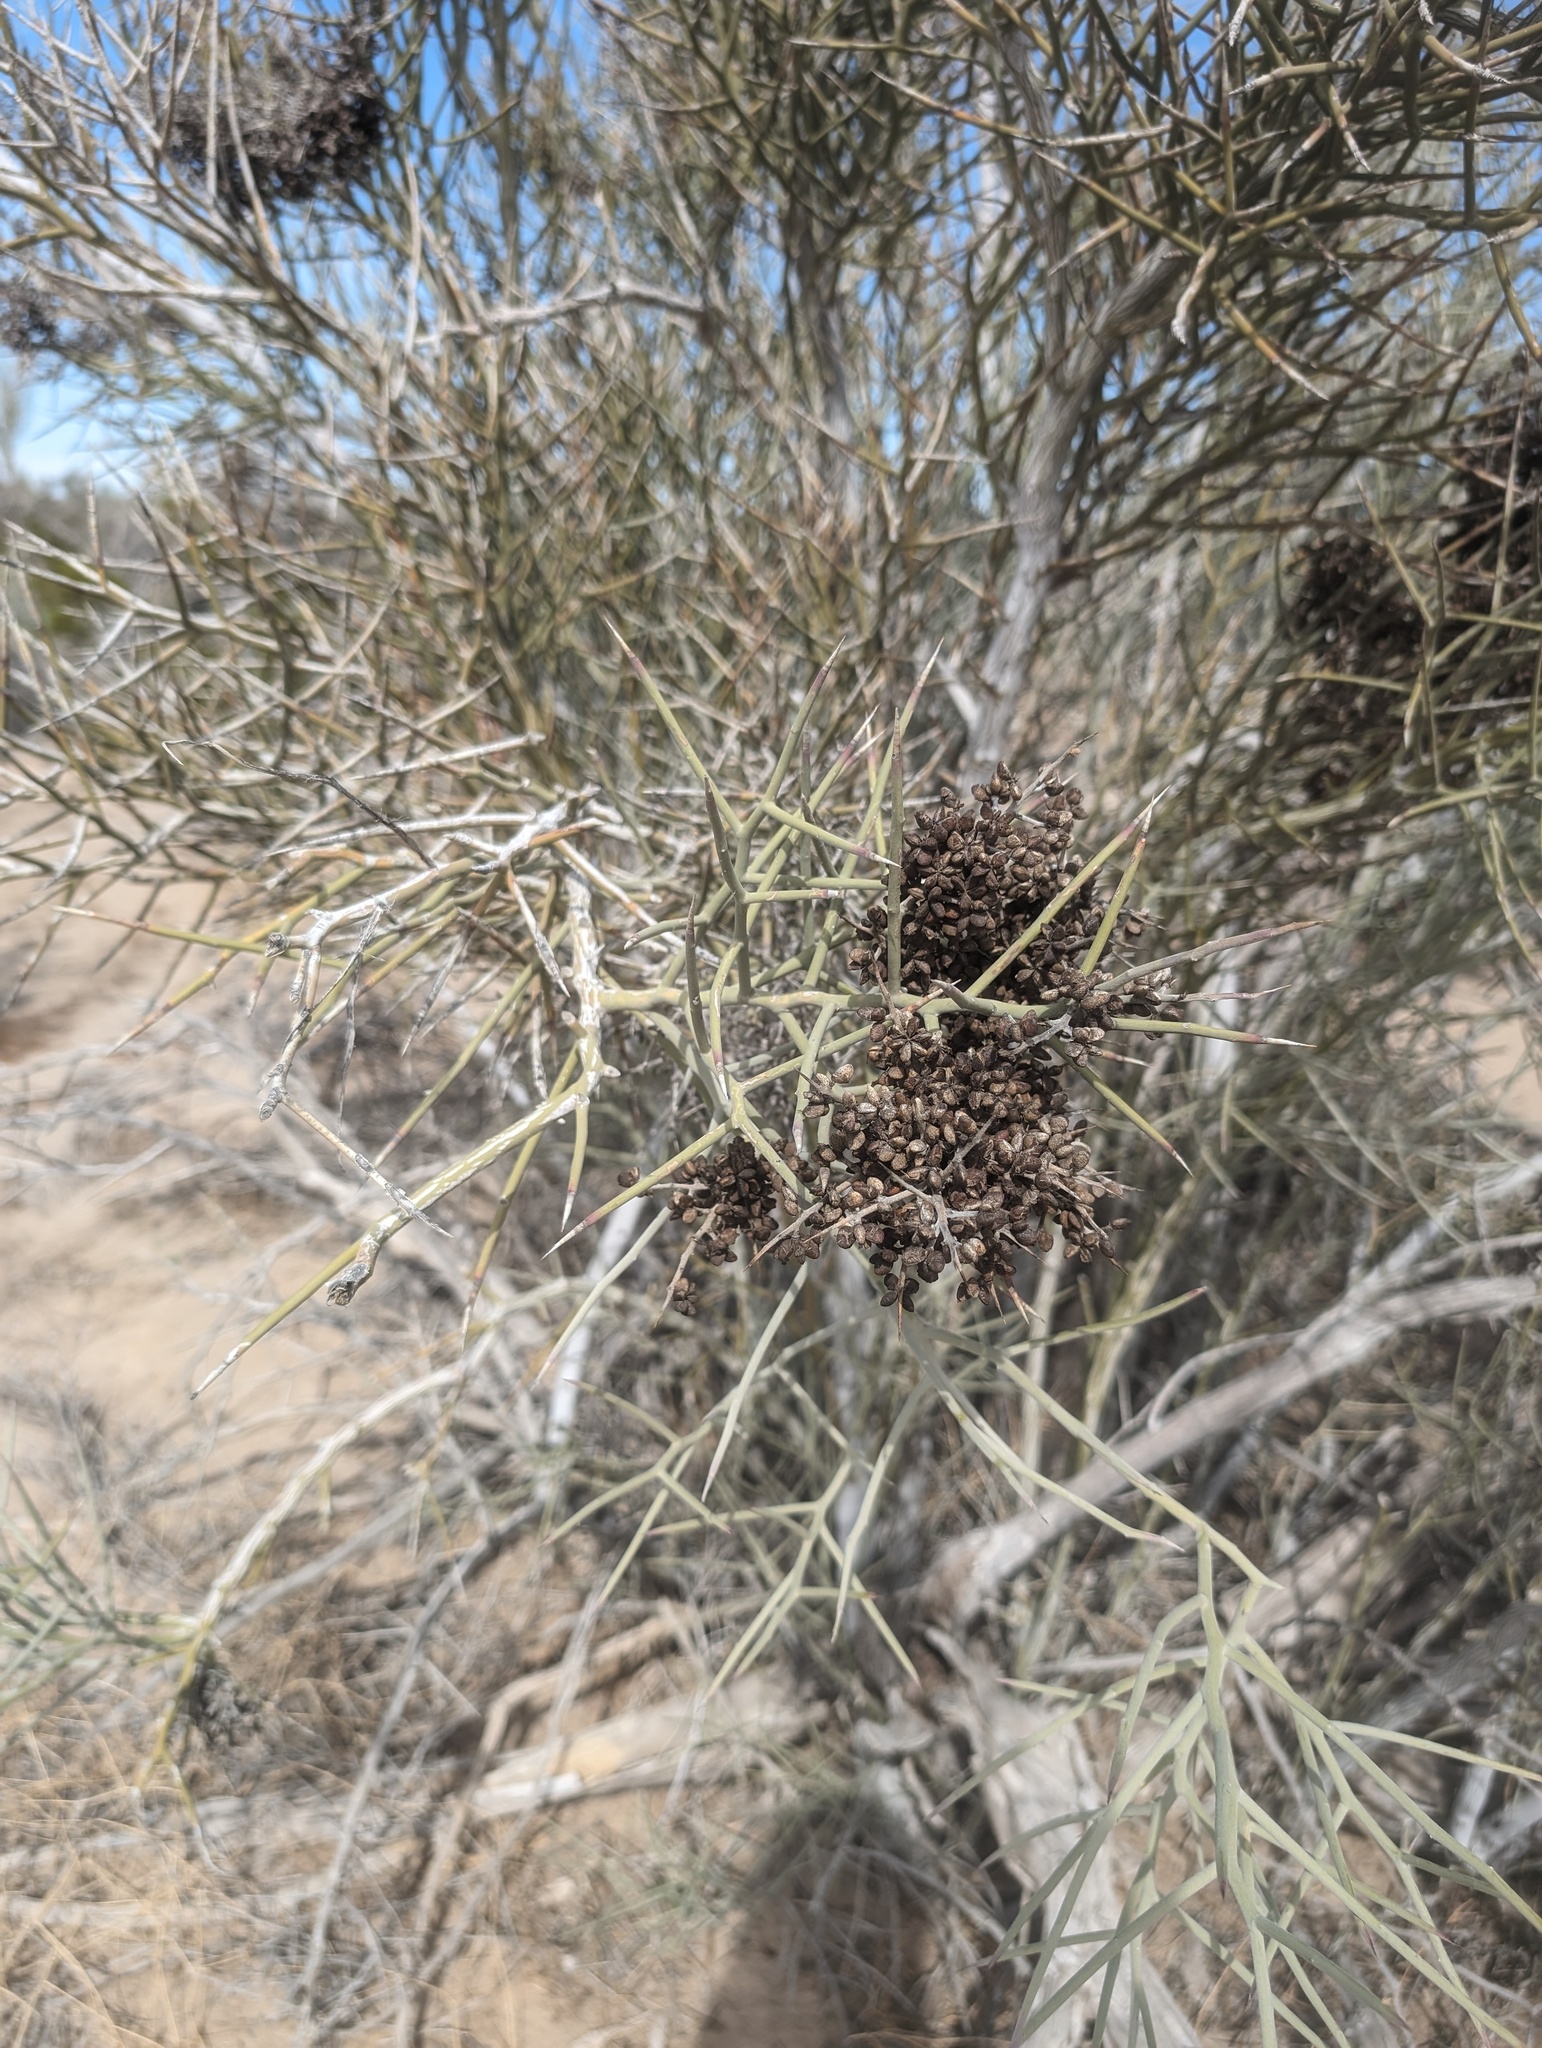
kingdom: Plantae
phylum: Tracheophyta
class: Magnoliopsida
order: Sapindales
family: Simaroubaceae
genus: Holacantha
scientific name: Holacantha emoryi
